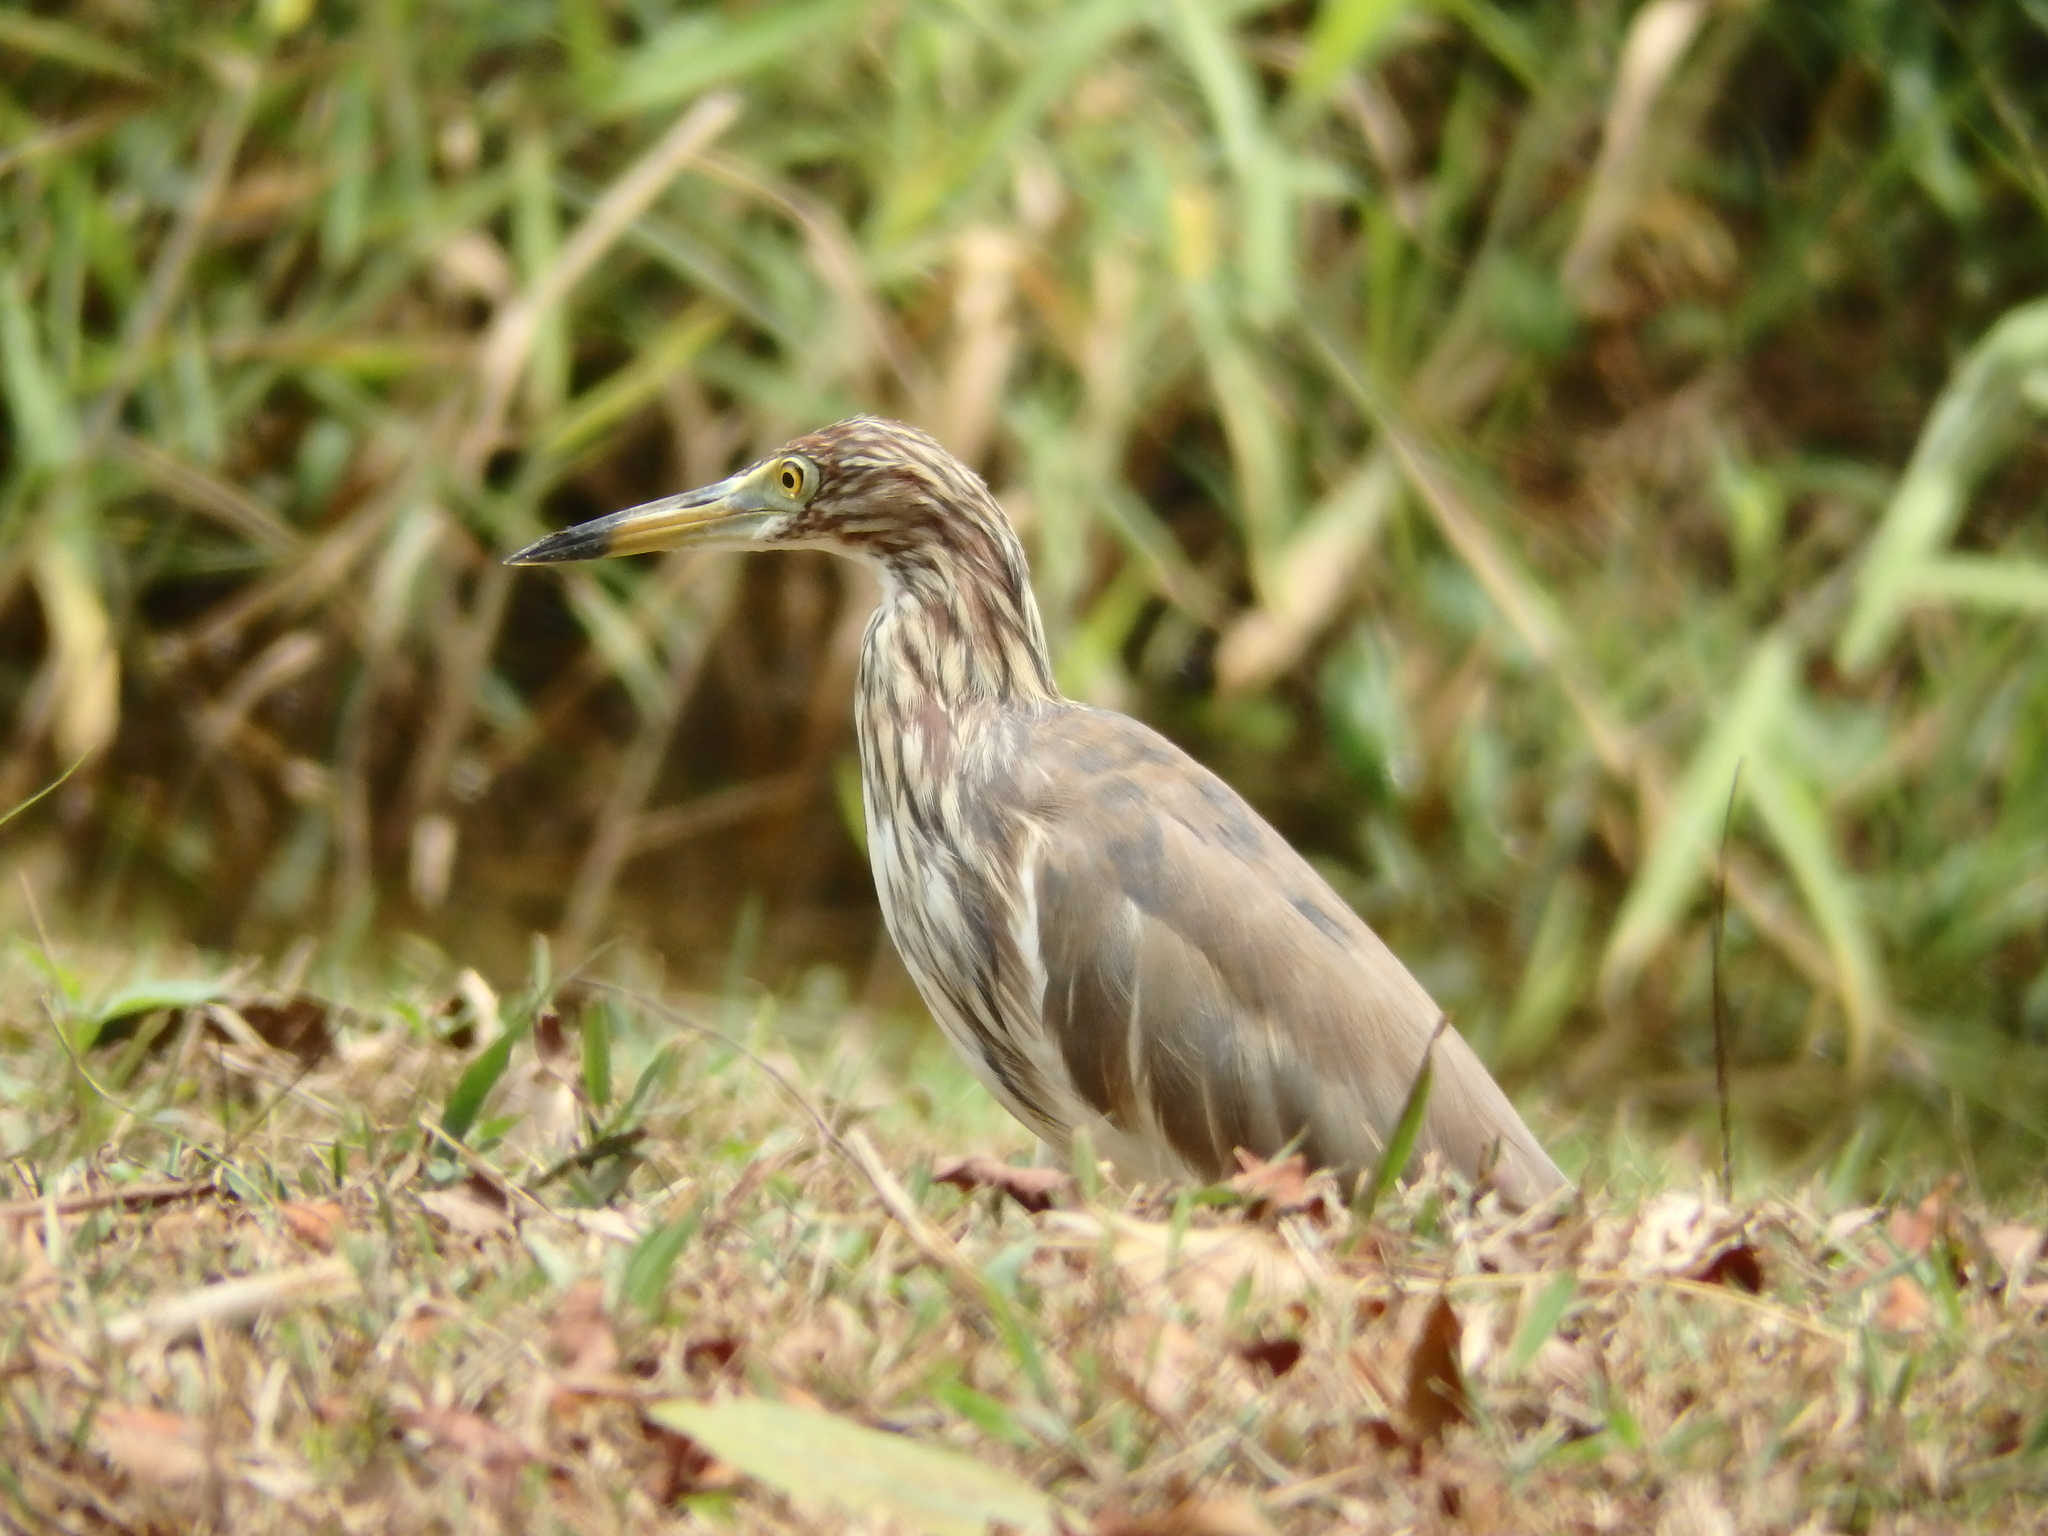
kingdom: Animalia
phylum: Chordata
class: Aves
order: Pelecaniformes
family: Ardeidae
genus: Ardeola
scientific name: Ardeola bacchus
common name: Chinese pond heron
